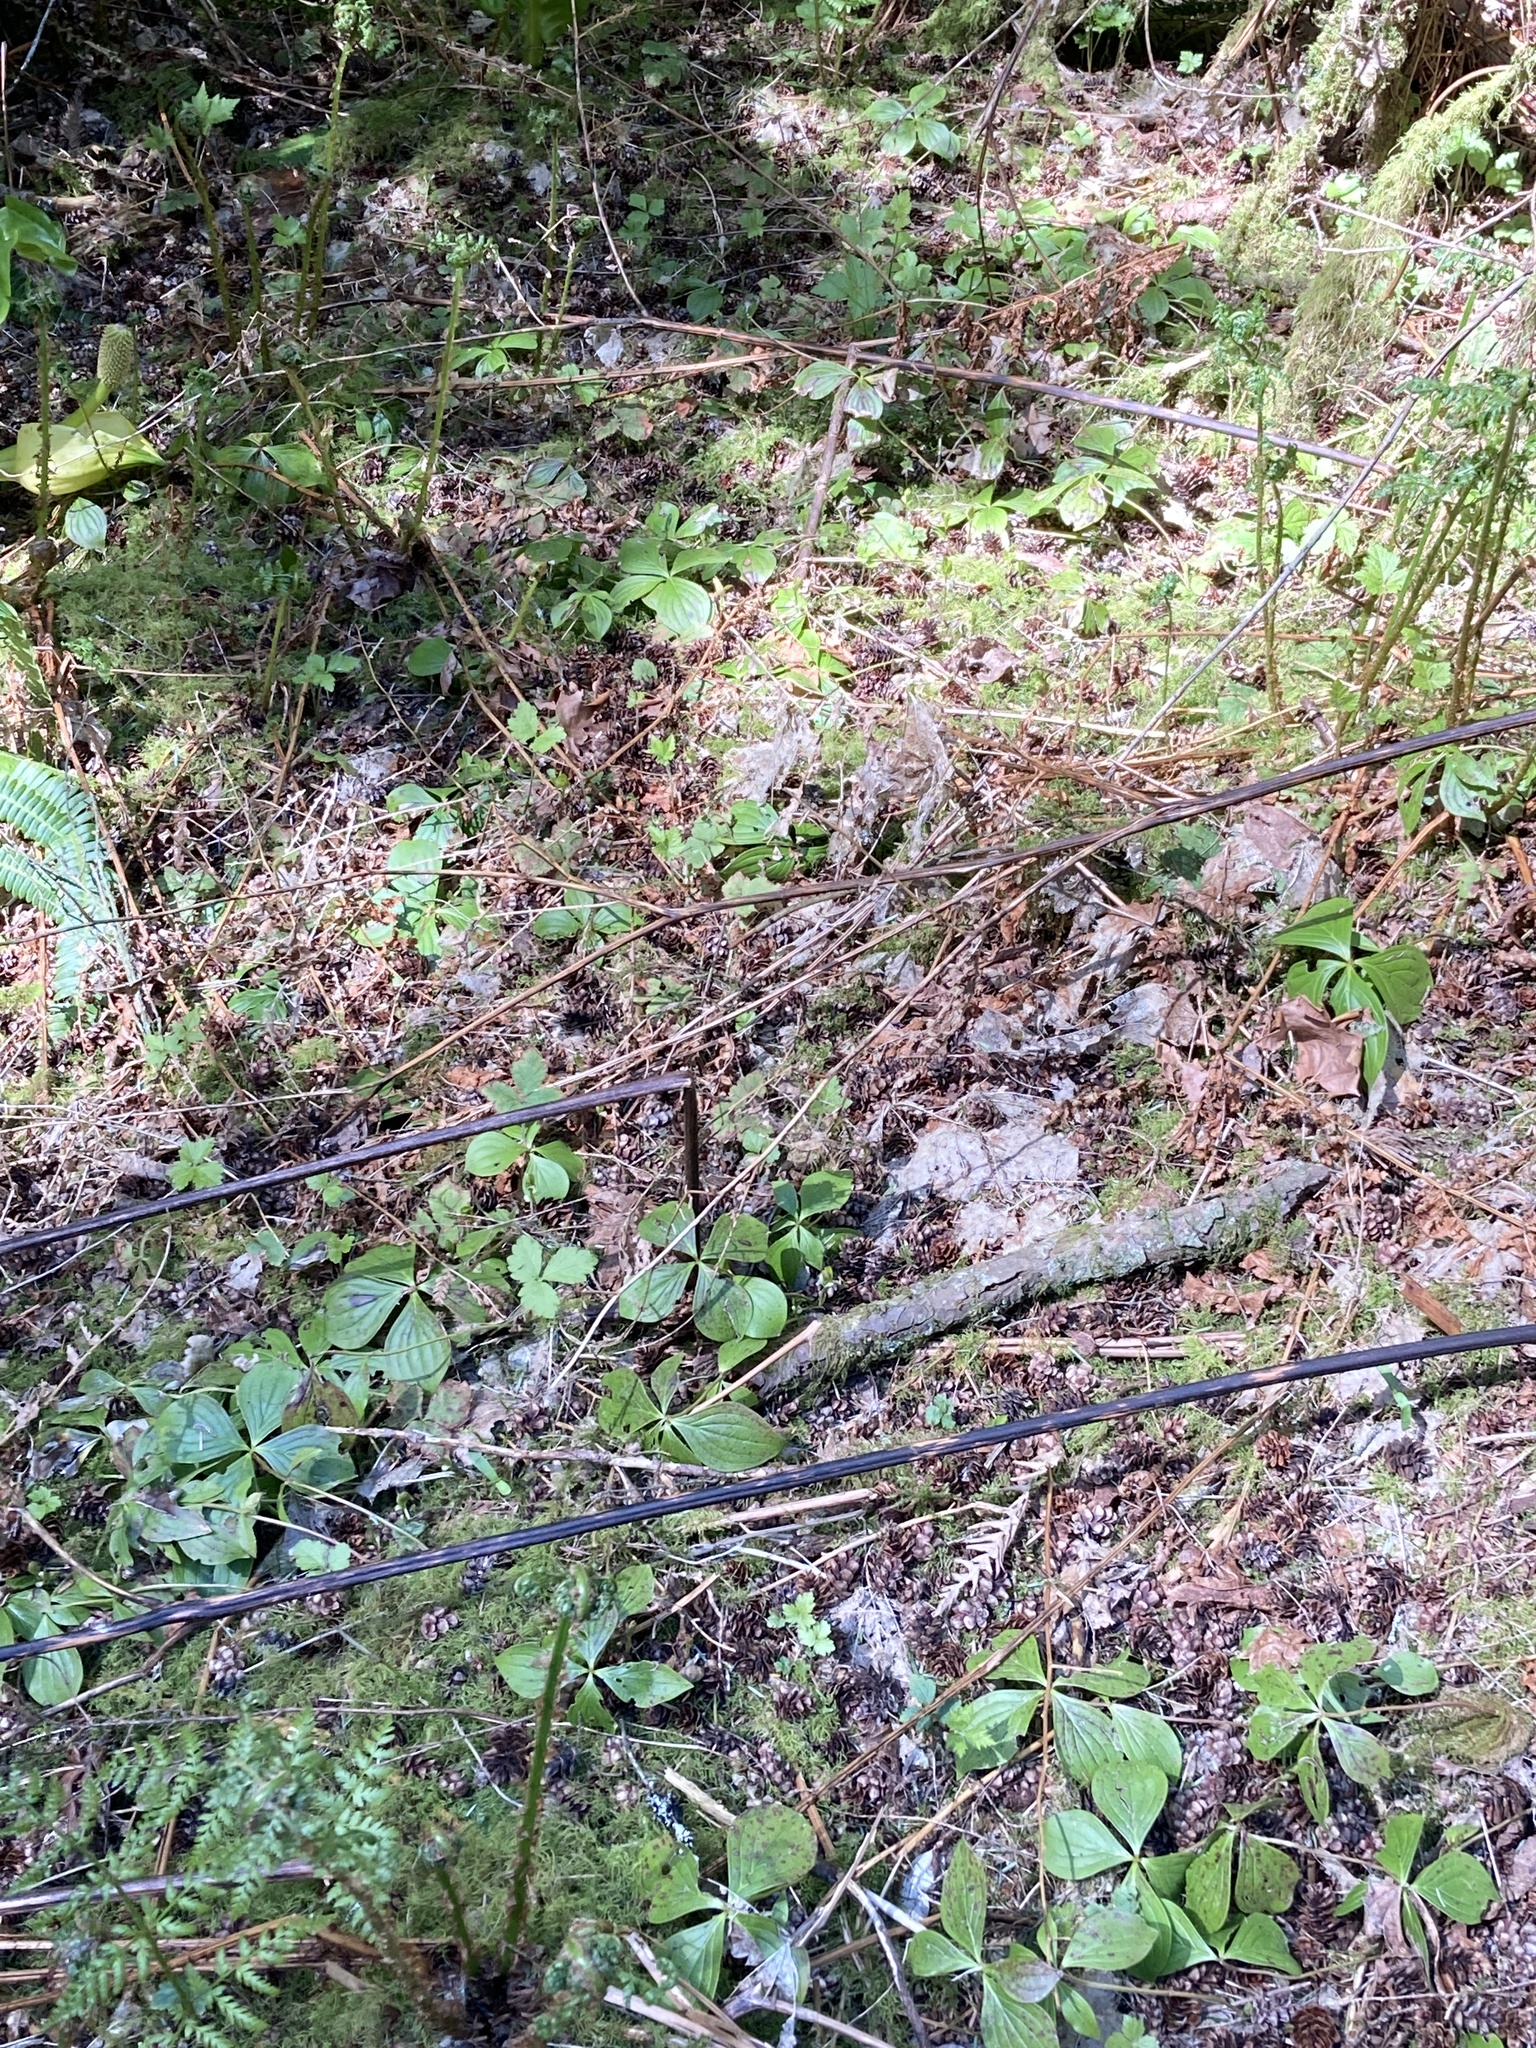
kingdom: Plantae
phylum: Tracheophyta
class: Magnoliopsida
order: Cornales
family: Cornaceae
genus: Cornus
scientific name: Cornus unalaschkensis
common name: Alaska bunchberry
